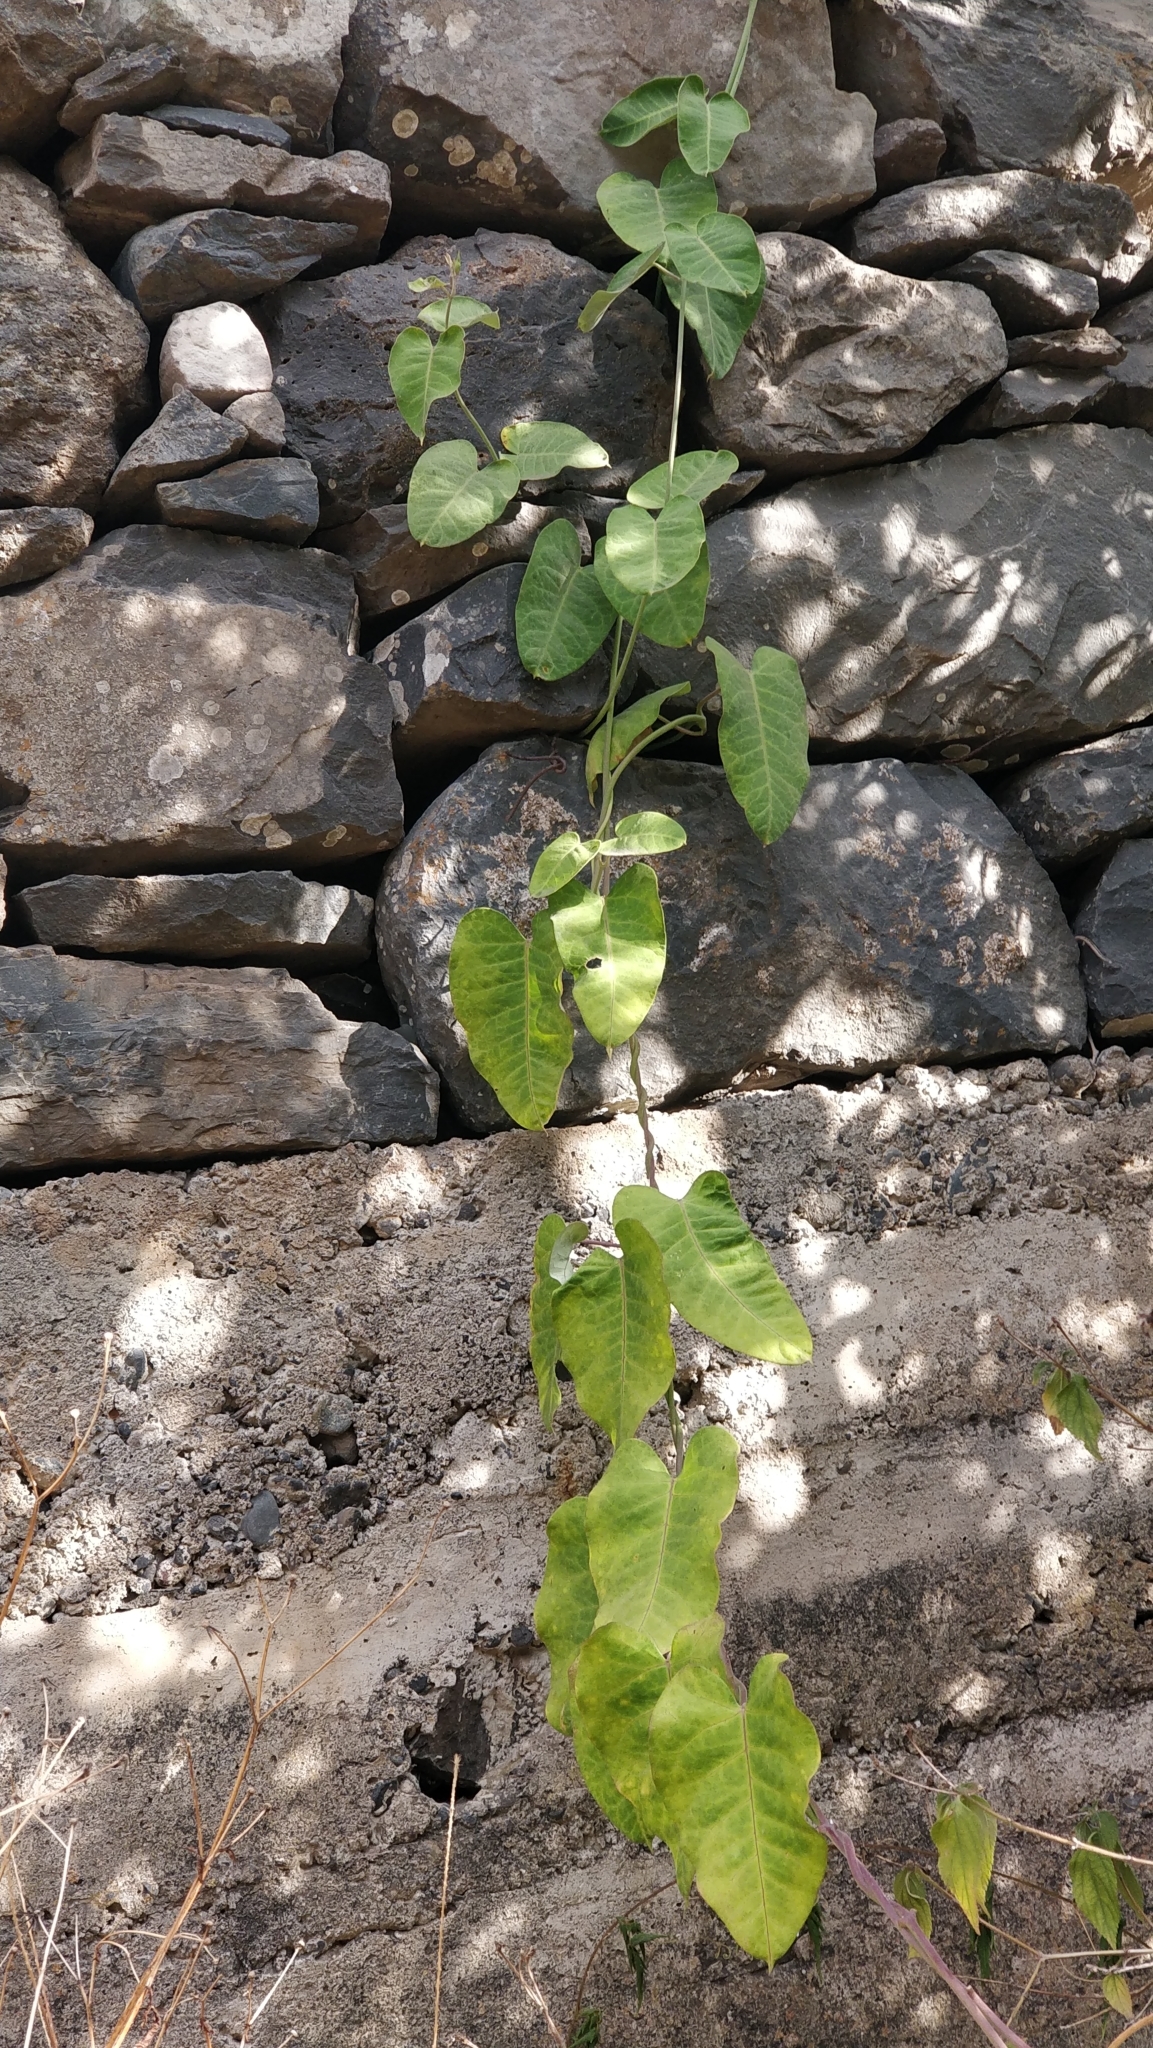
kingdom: Plantae
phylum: Tracheophyta
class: Magnoliopsida
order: Gentianales
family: Apocynaceae
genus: Araujia
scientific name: Araujia sericifera
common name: White bladderflower
